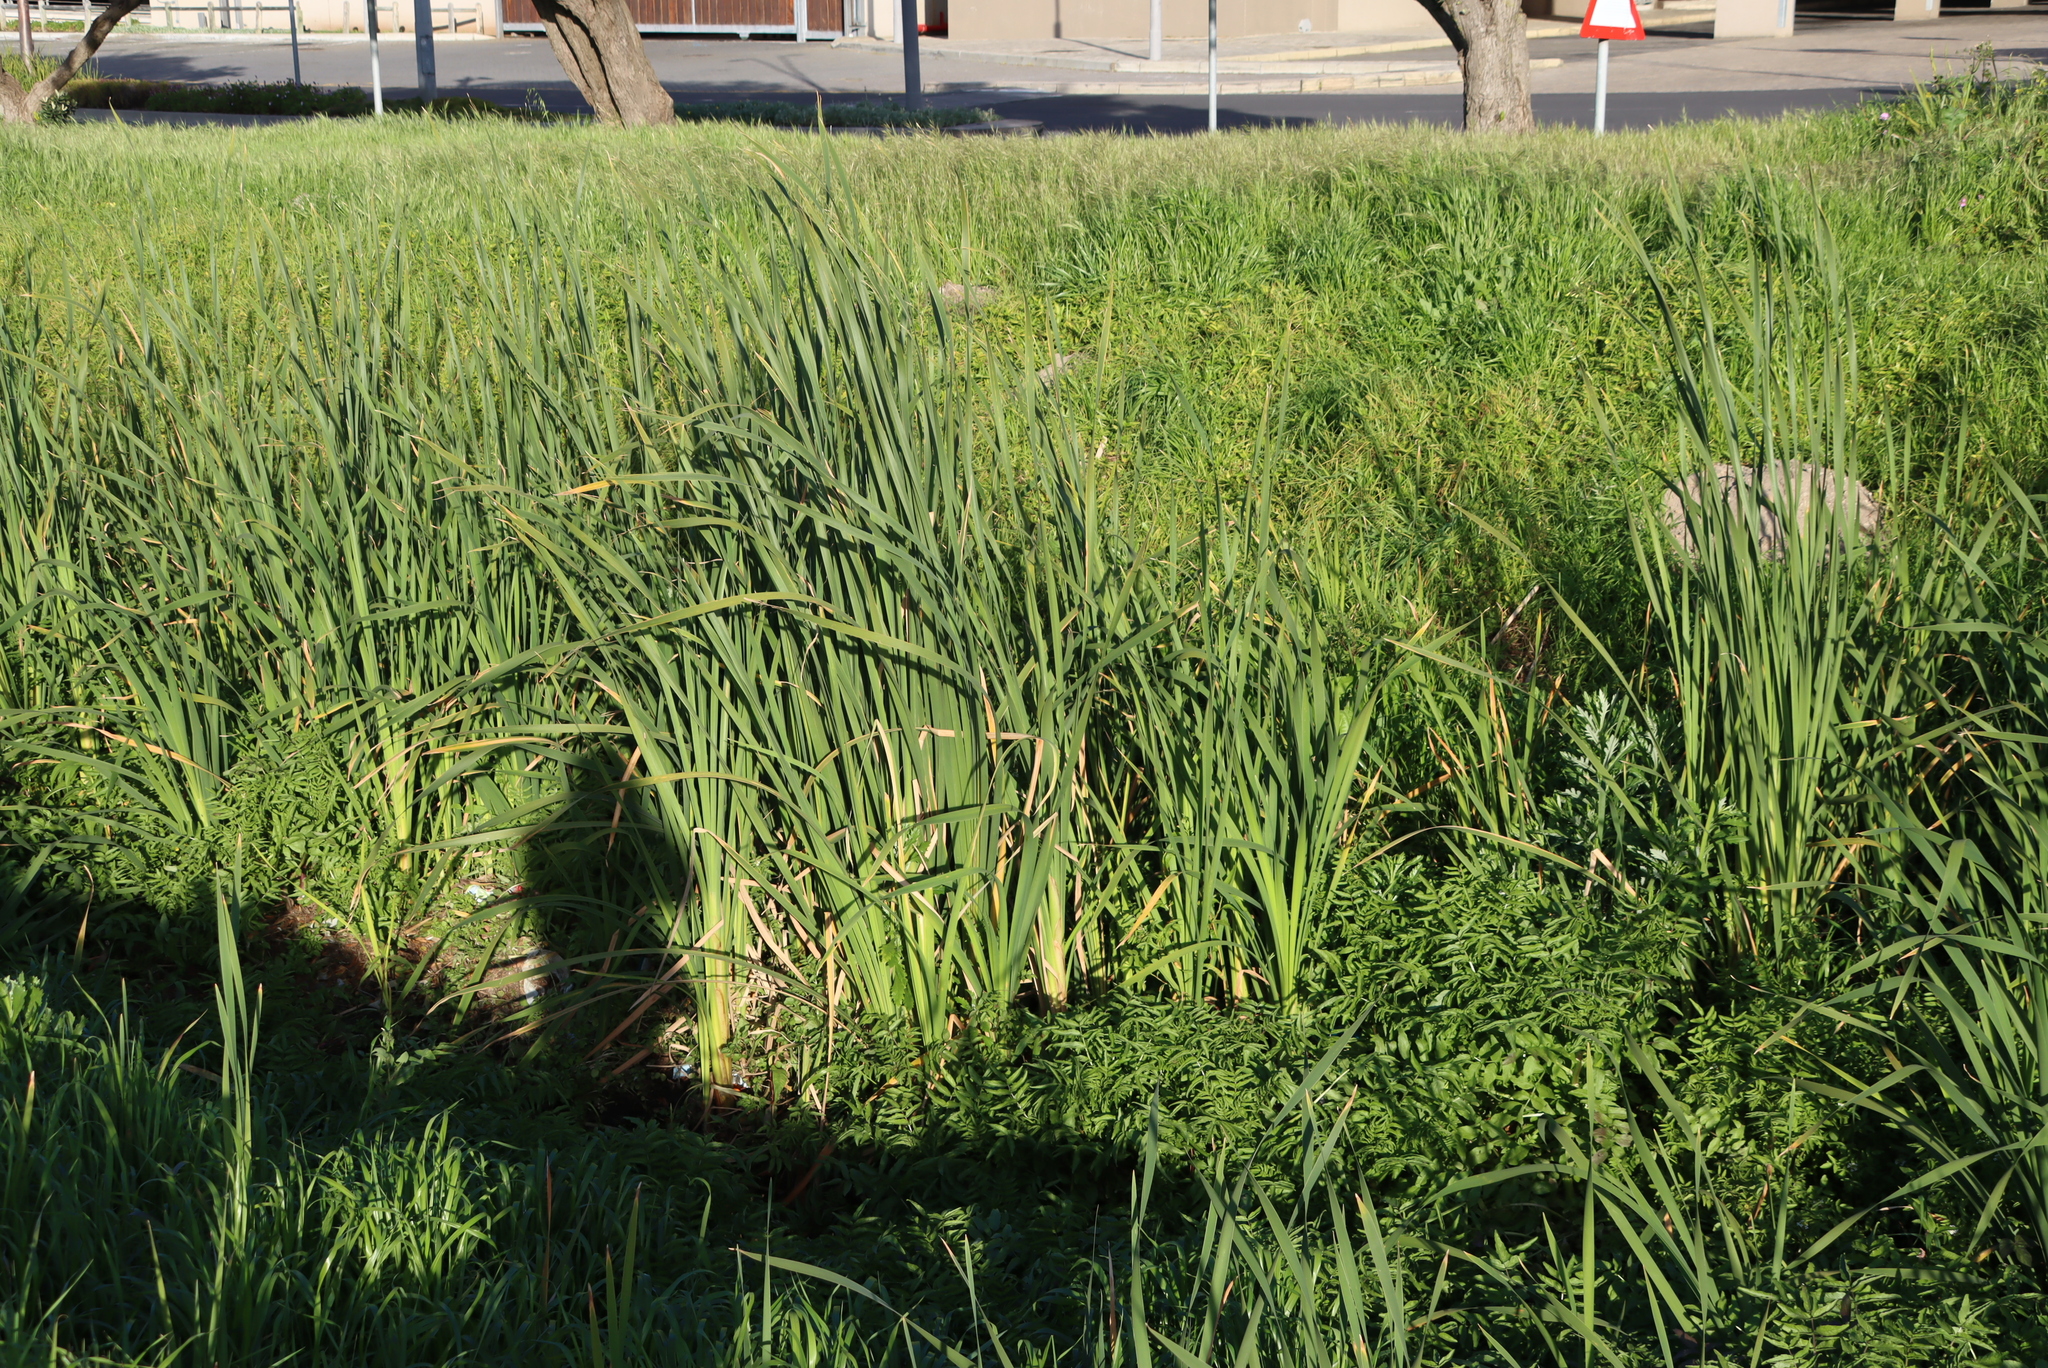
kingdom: Plantae
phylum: Tracheophyta
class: Liliopsida
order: Poales
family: Typhaceae
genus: Typha
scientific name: Typha capensis
